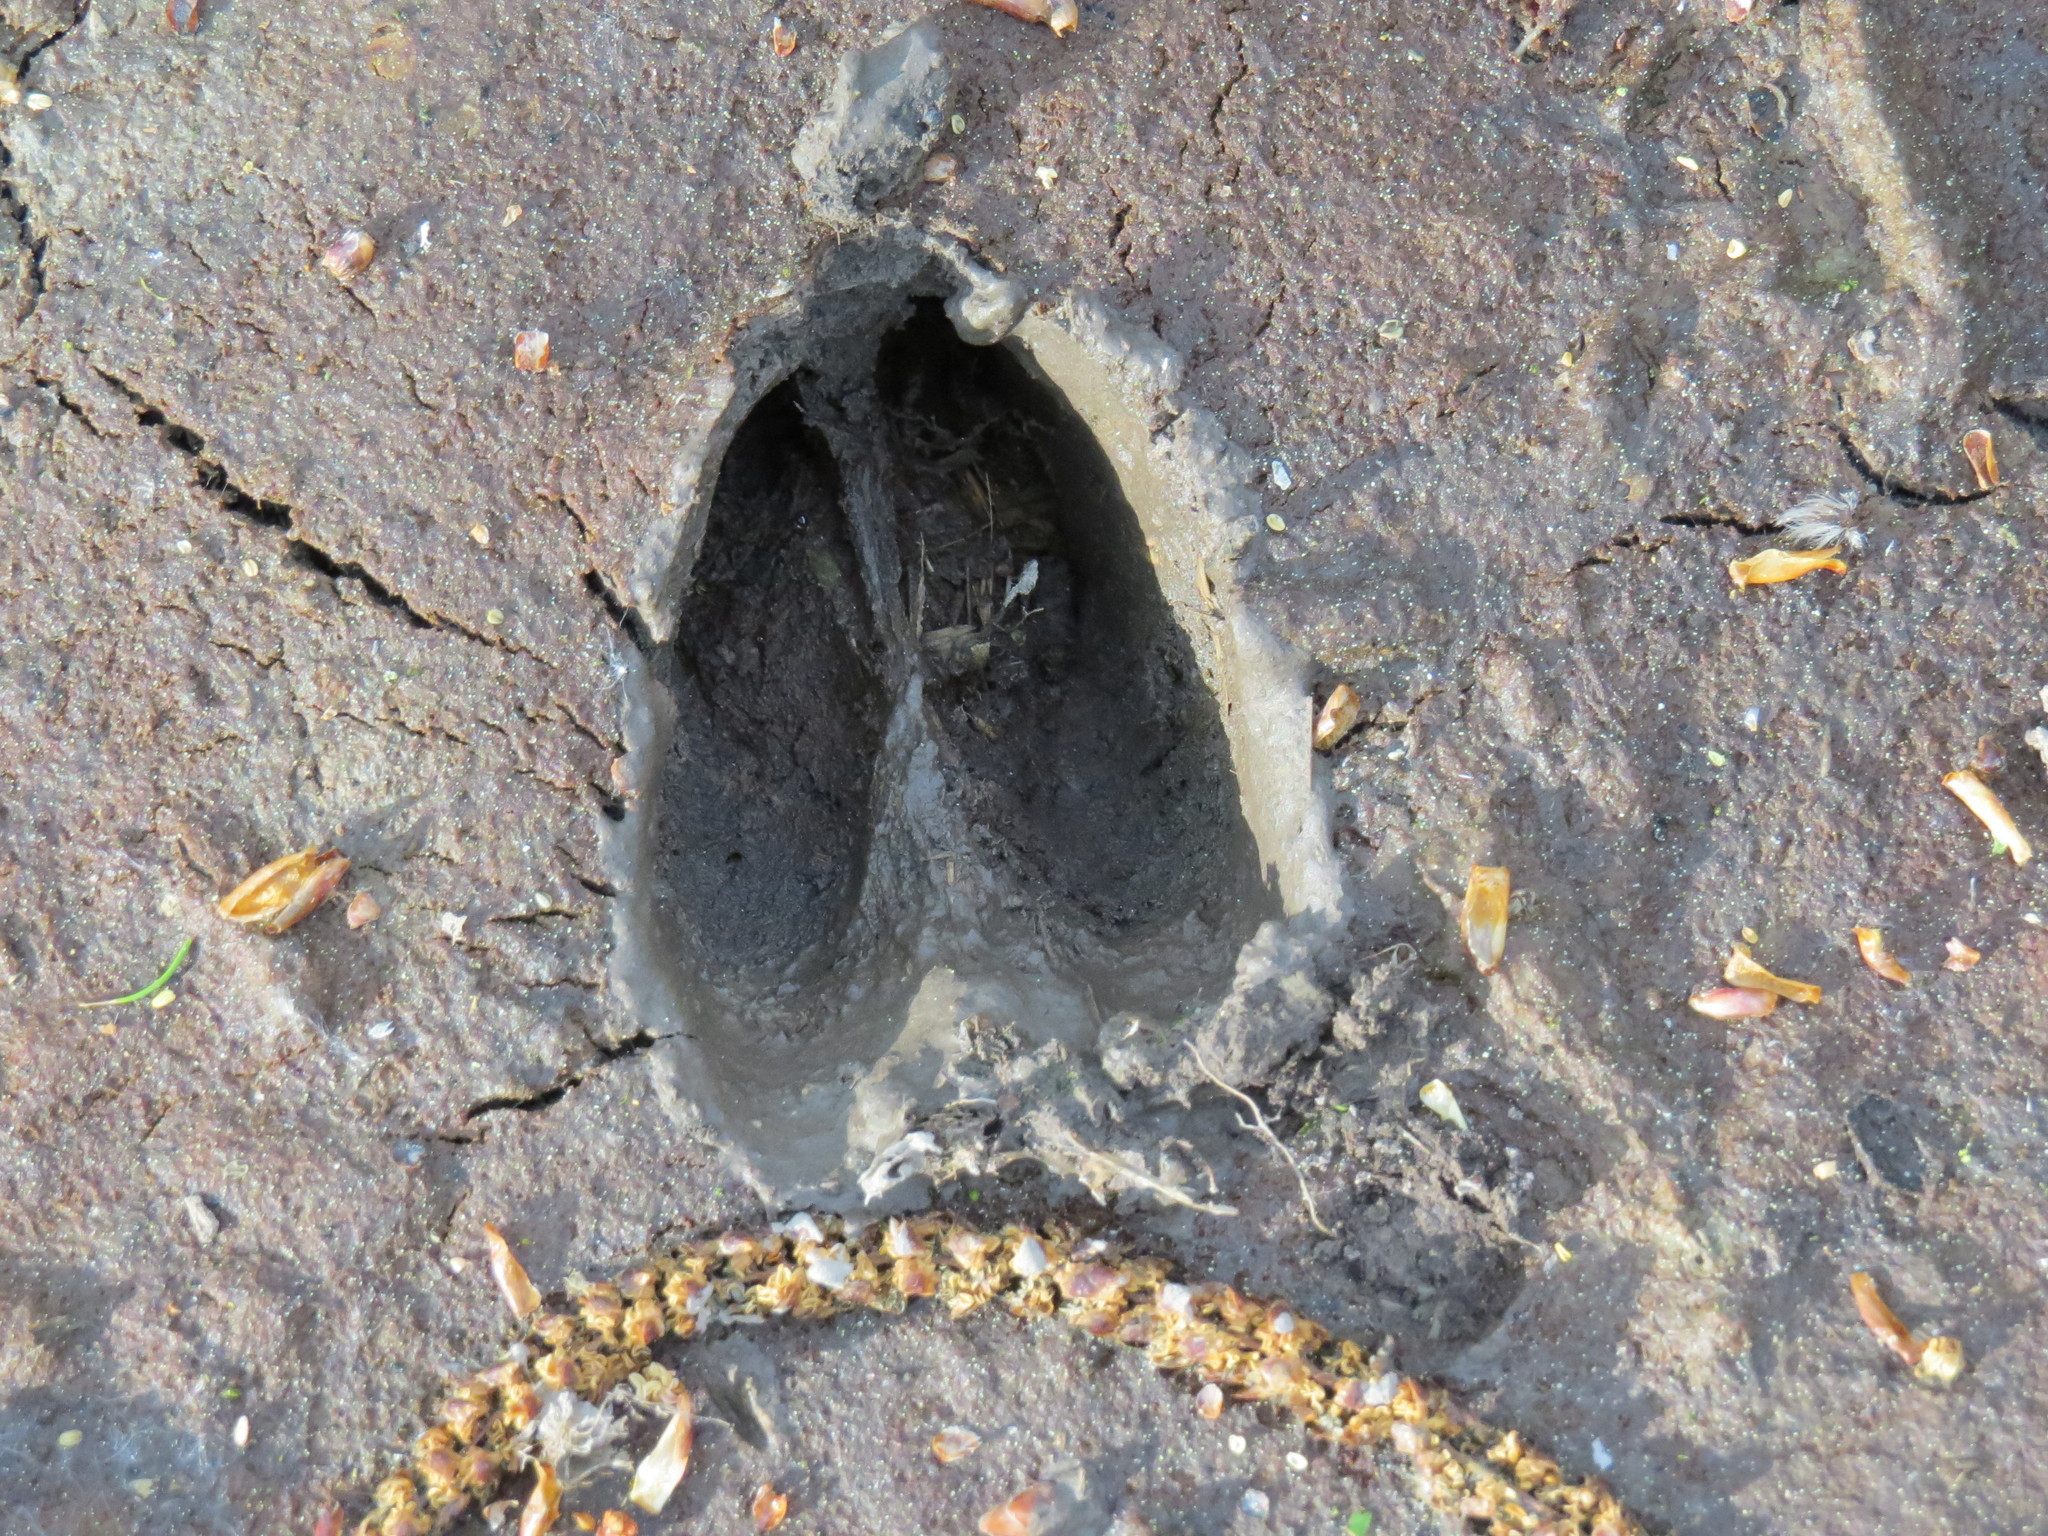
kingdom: Animalia
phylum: Chordata
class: Mammalia
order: Artiodactyla
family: Cervidae
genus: Capreolus
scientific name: Capreolus capreolus
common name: Western roe deer
